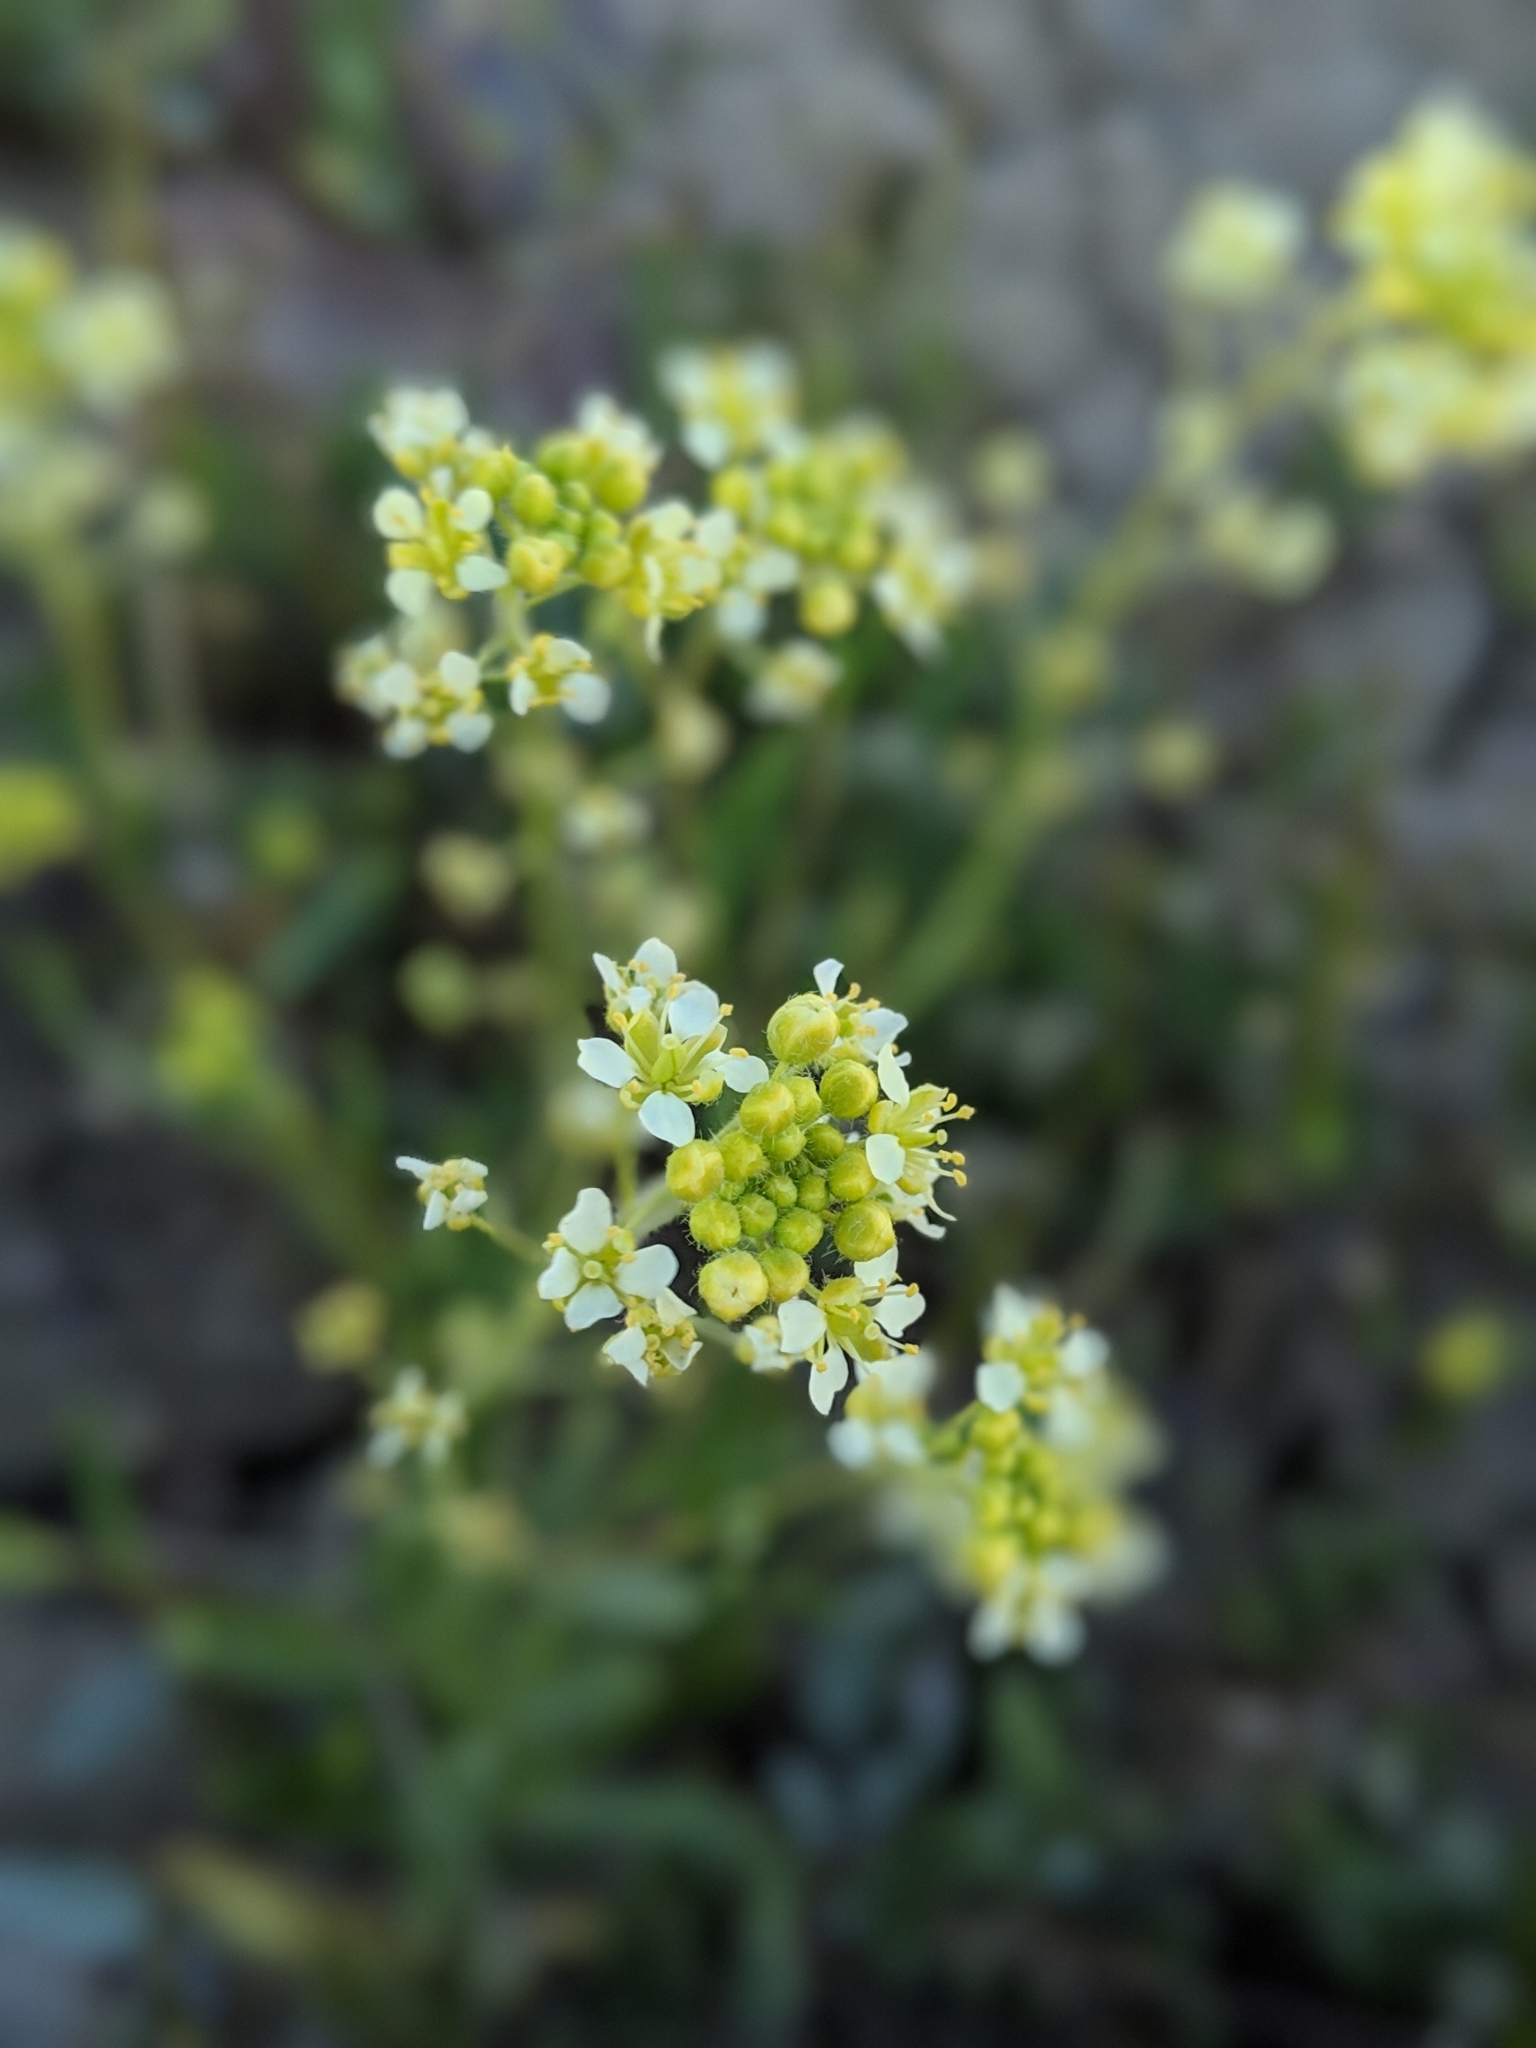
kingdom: Plantae
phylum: Tracheophyta
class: Magnoliopsida
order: Brassicales
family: Brassicaceae
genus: Lepidium
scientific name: Lepidium jaredii
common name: Jared's peppergrass
